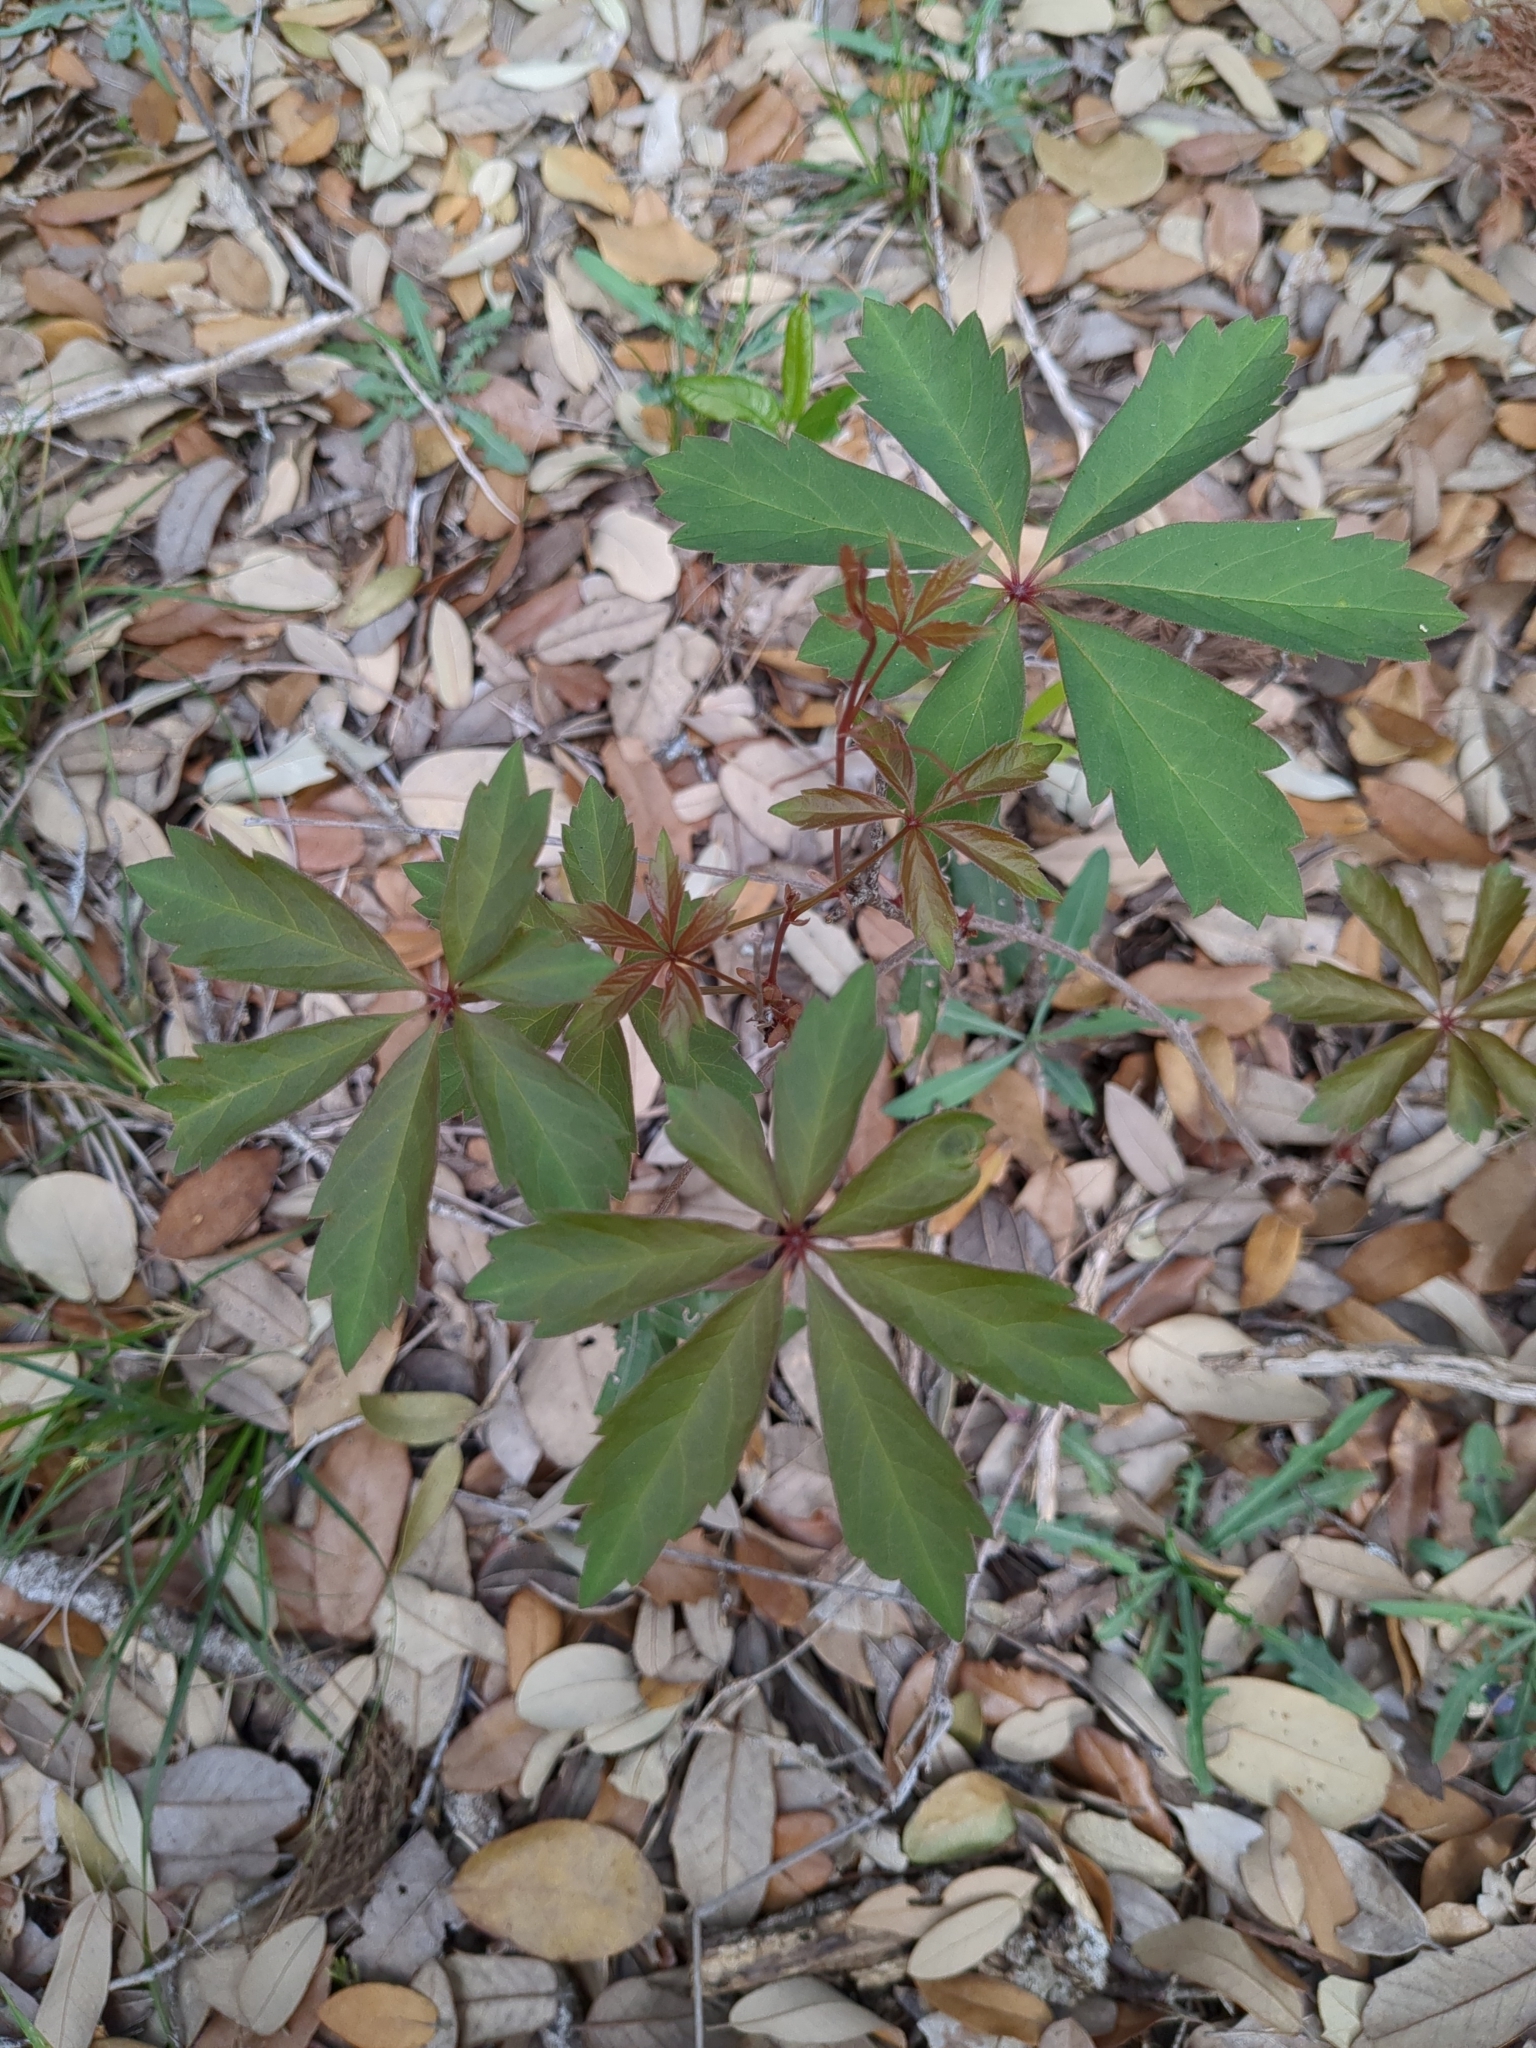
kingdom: Plantae
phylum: Tracheophyta
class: Magnoliopsida
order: Vitales
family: Vitaceae
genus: Parthenocissus
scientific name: Parthenocissus heptaphylla
